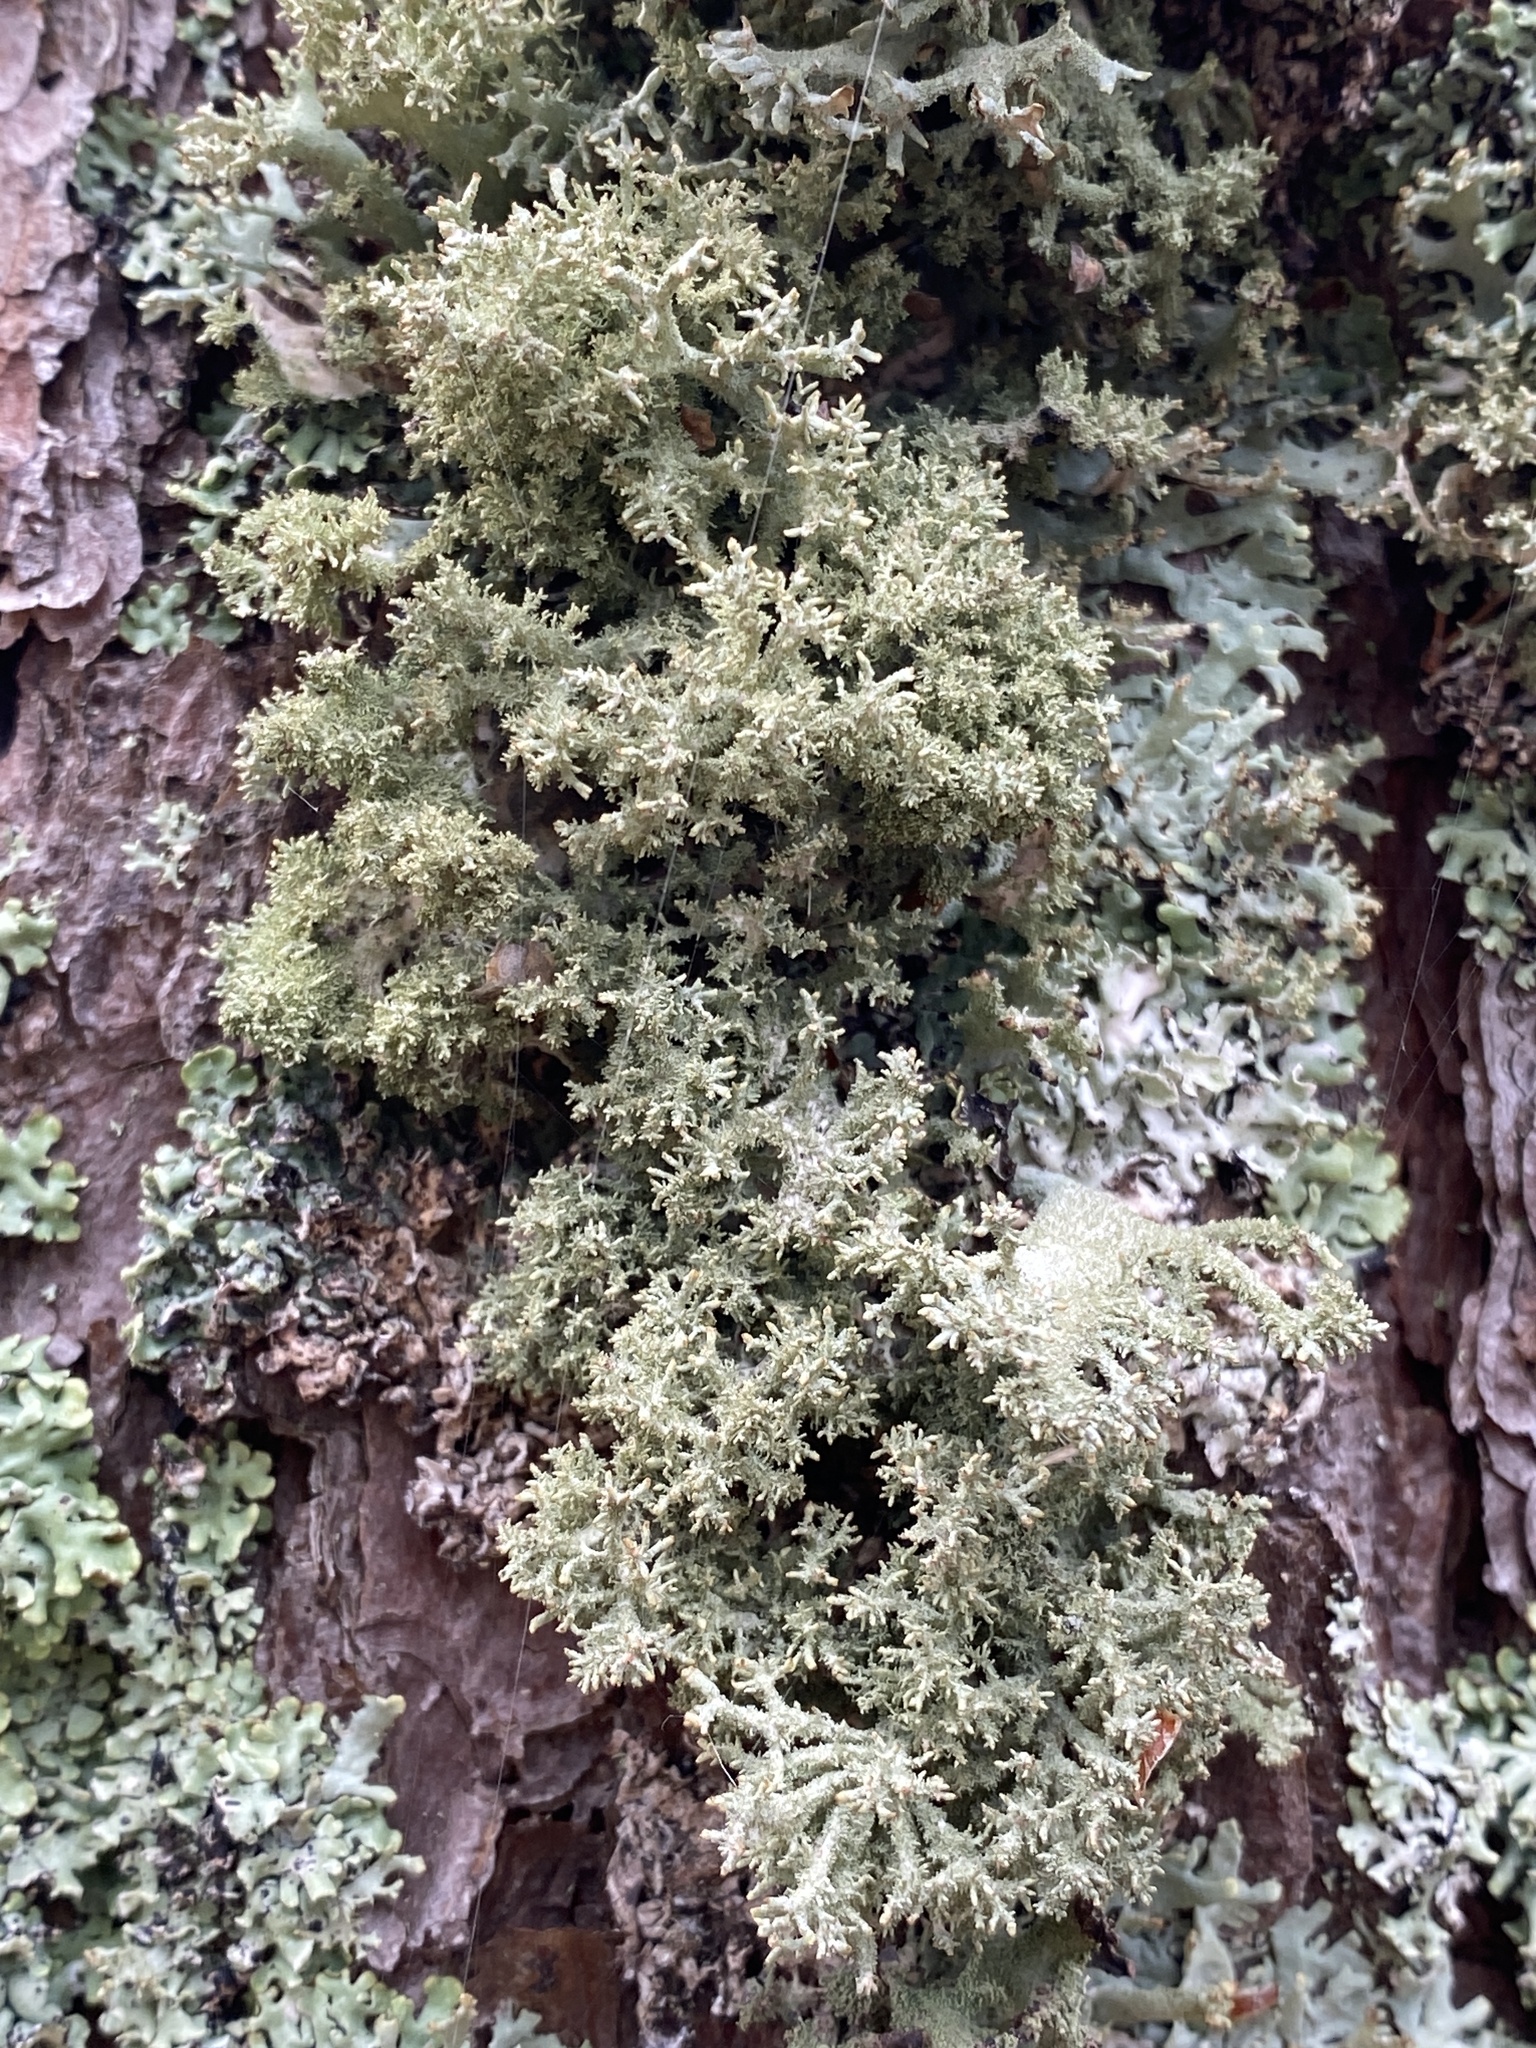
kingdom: Fungi
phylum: Ascomycota
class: Lecanoromycetes
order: Lecanorales
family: Parmeliaceae
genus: Pseudevernia
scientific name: Pseudevernia furfuracea
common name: Tree moss
